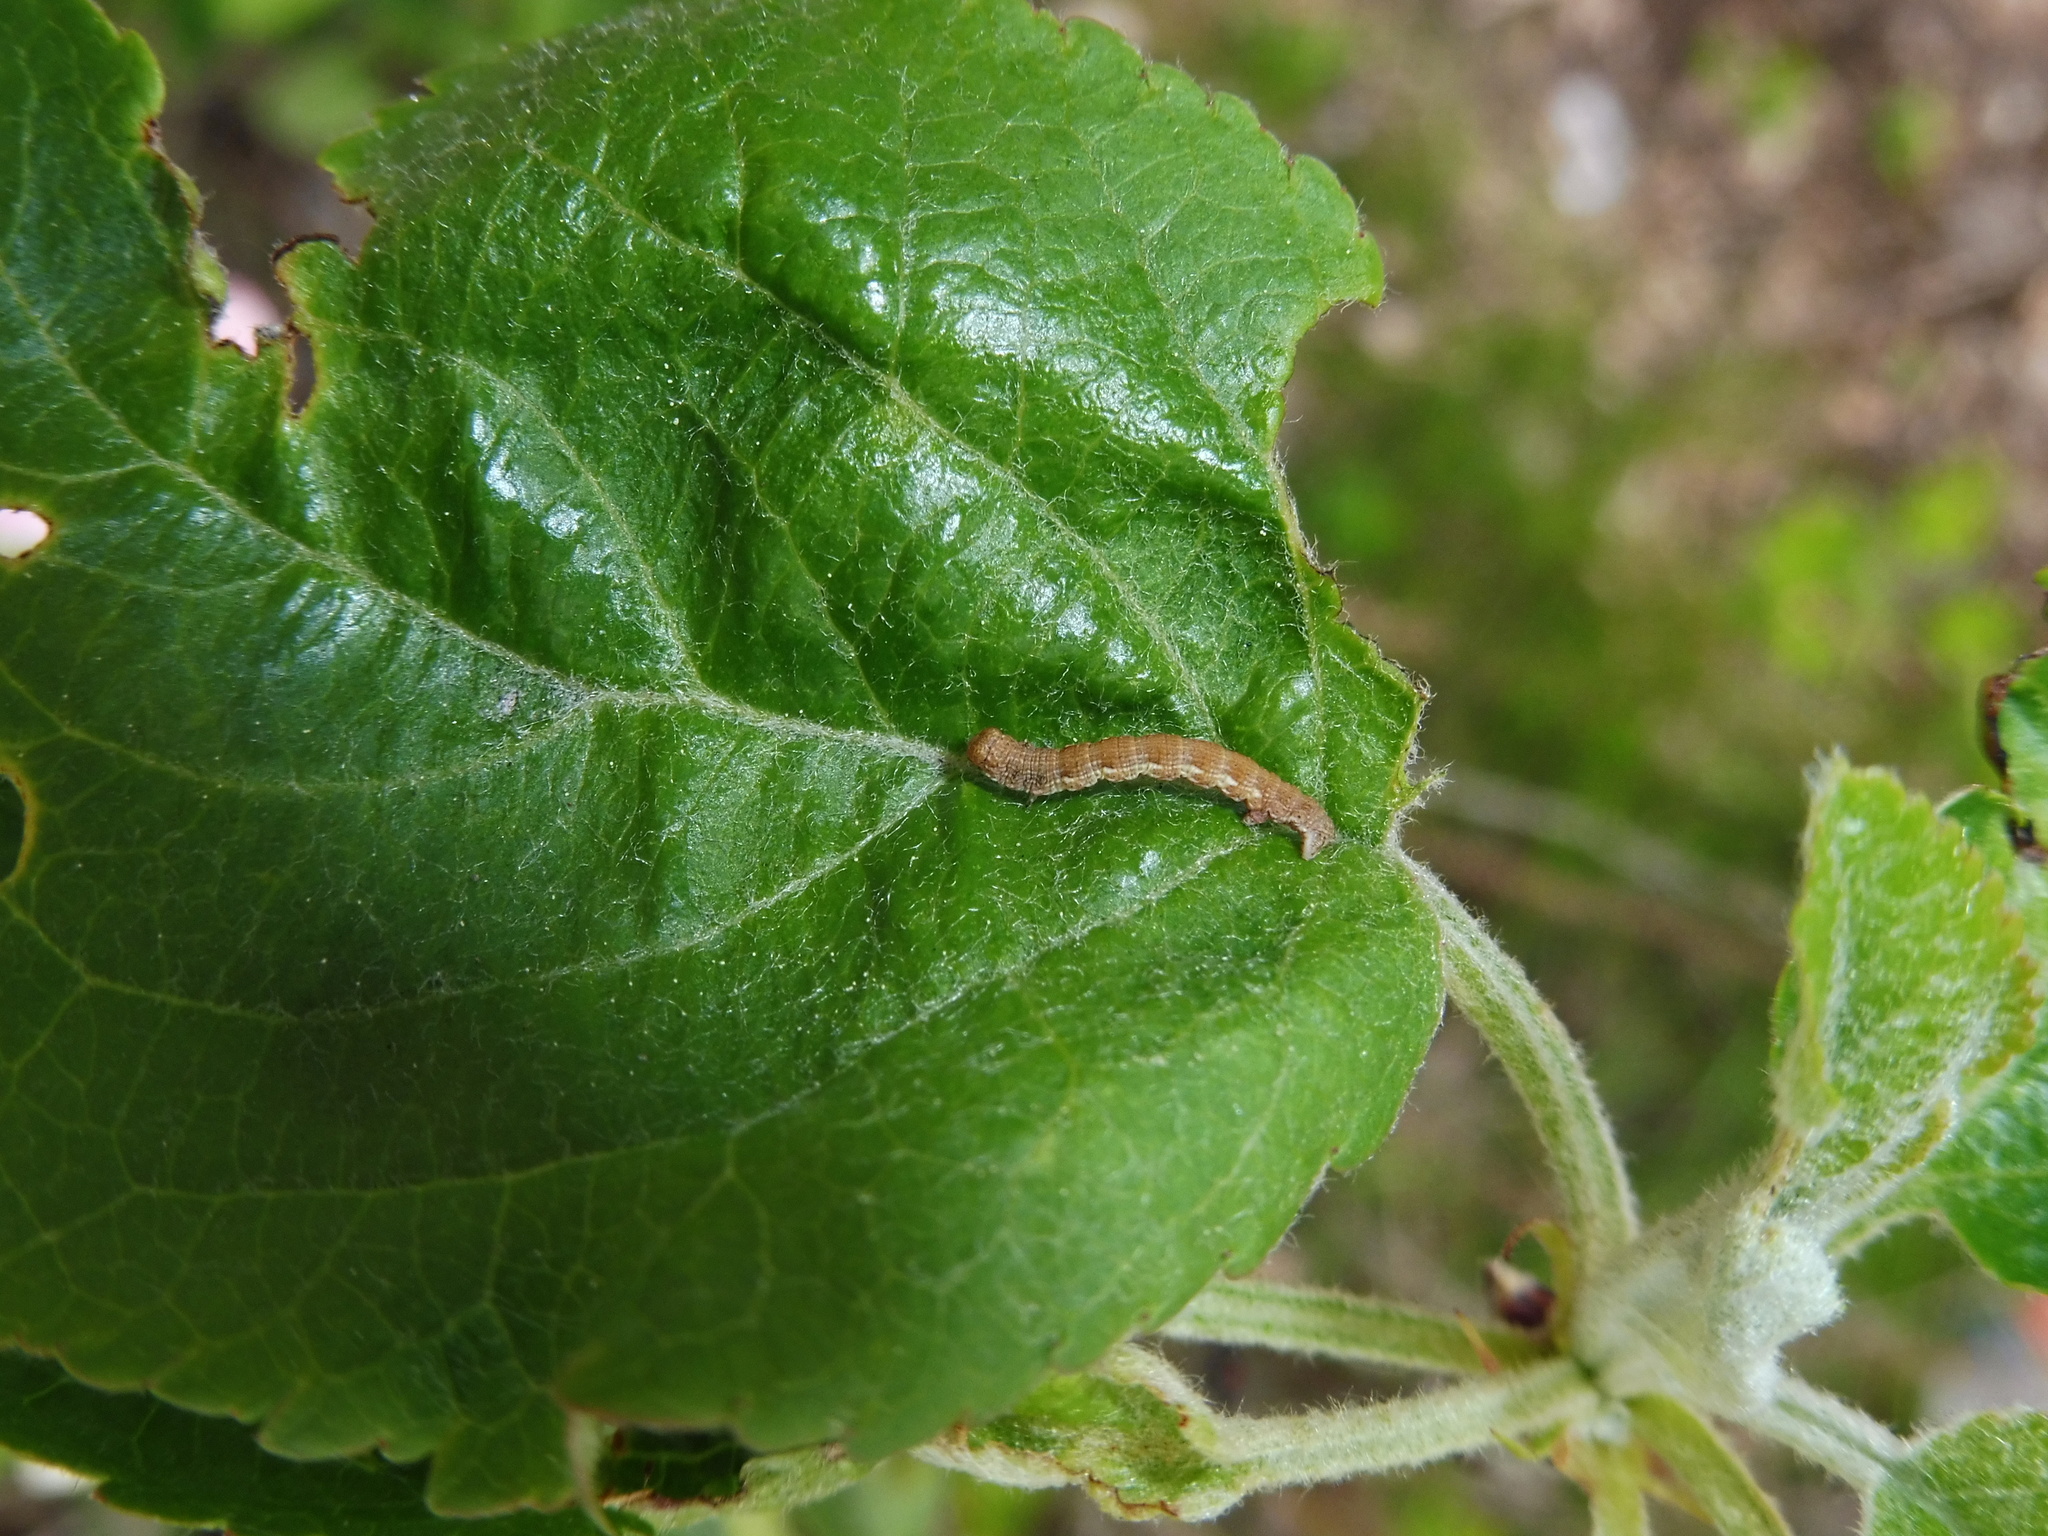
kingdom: Animalia
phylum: Arthropoda
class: Insecta
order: Lepidoptera
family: Geometridae
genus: Erannis
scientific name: Erannis defoliaria
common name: Mottled umber
